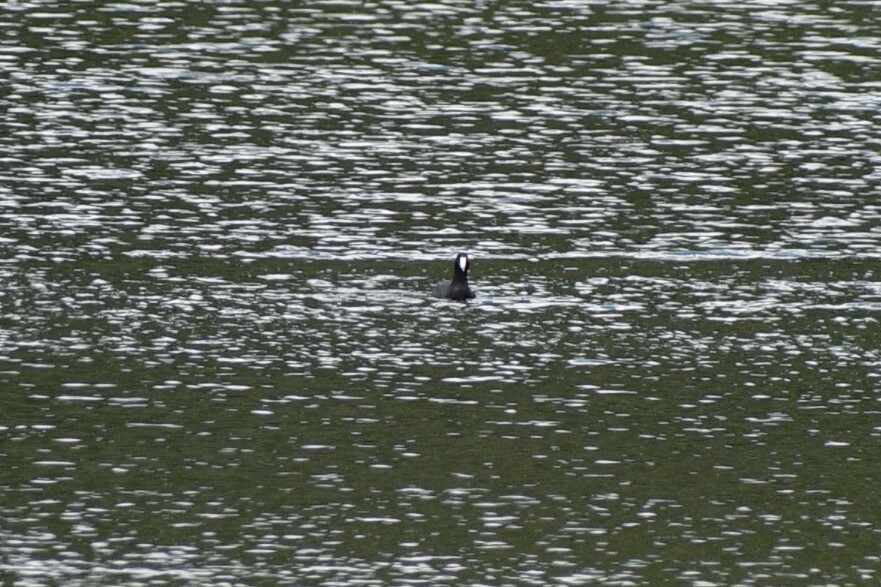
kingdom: Animalia
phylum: Chordata
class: Aves
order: Gruiformes
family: Rallidae
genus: Fulica
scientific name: Fulica americana
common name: American coot
